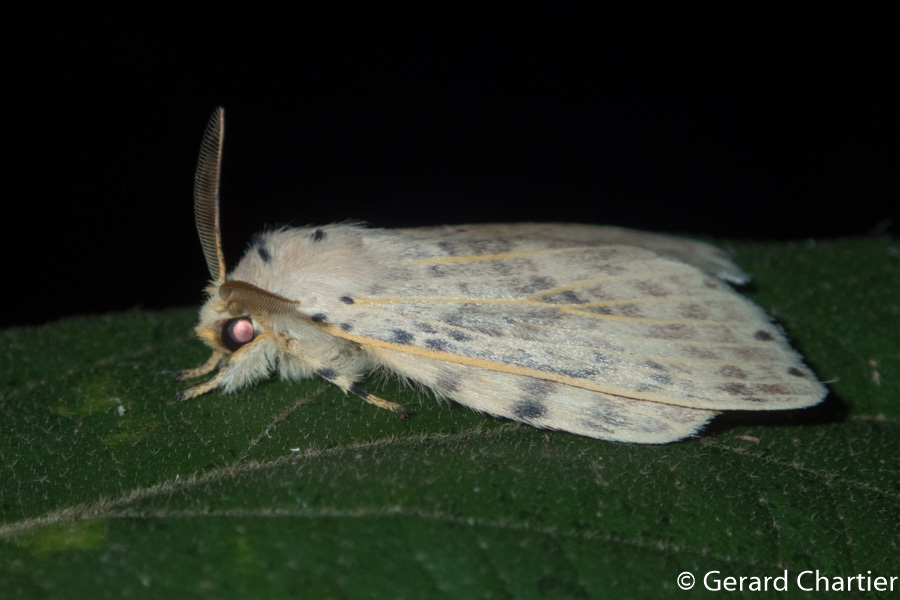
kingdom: Animalia
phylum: Arthropoda
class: Insecta
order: Lepidoptera
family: Notodontidae
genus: Cerasana
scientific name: Cerasana
